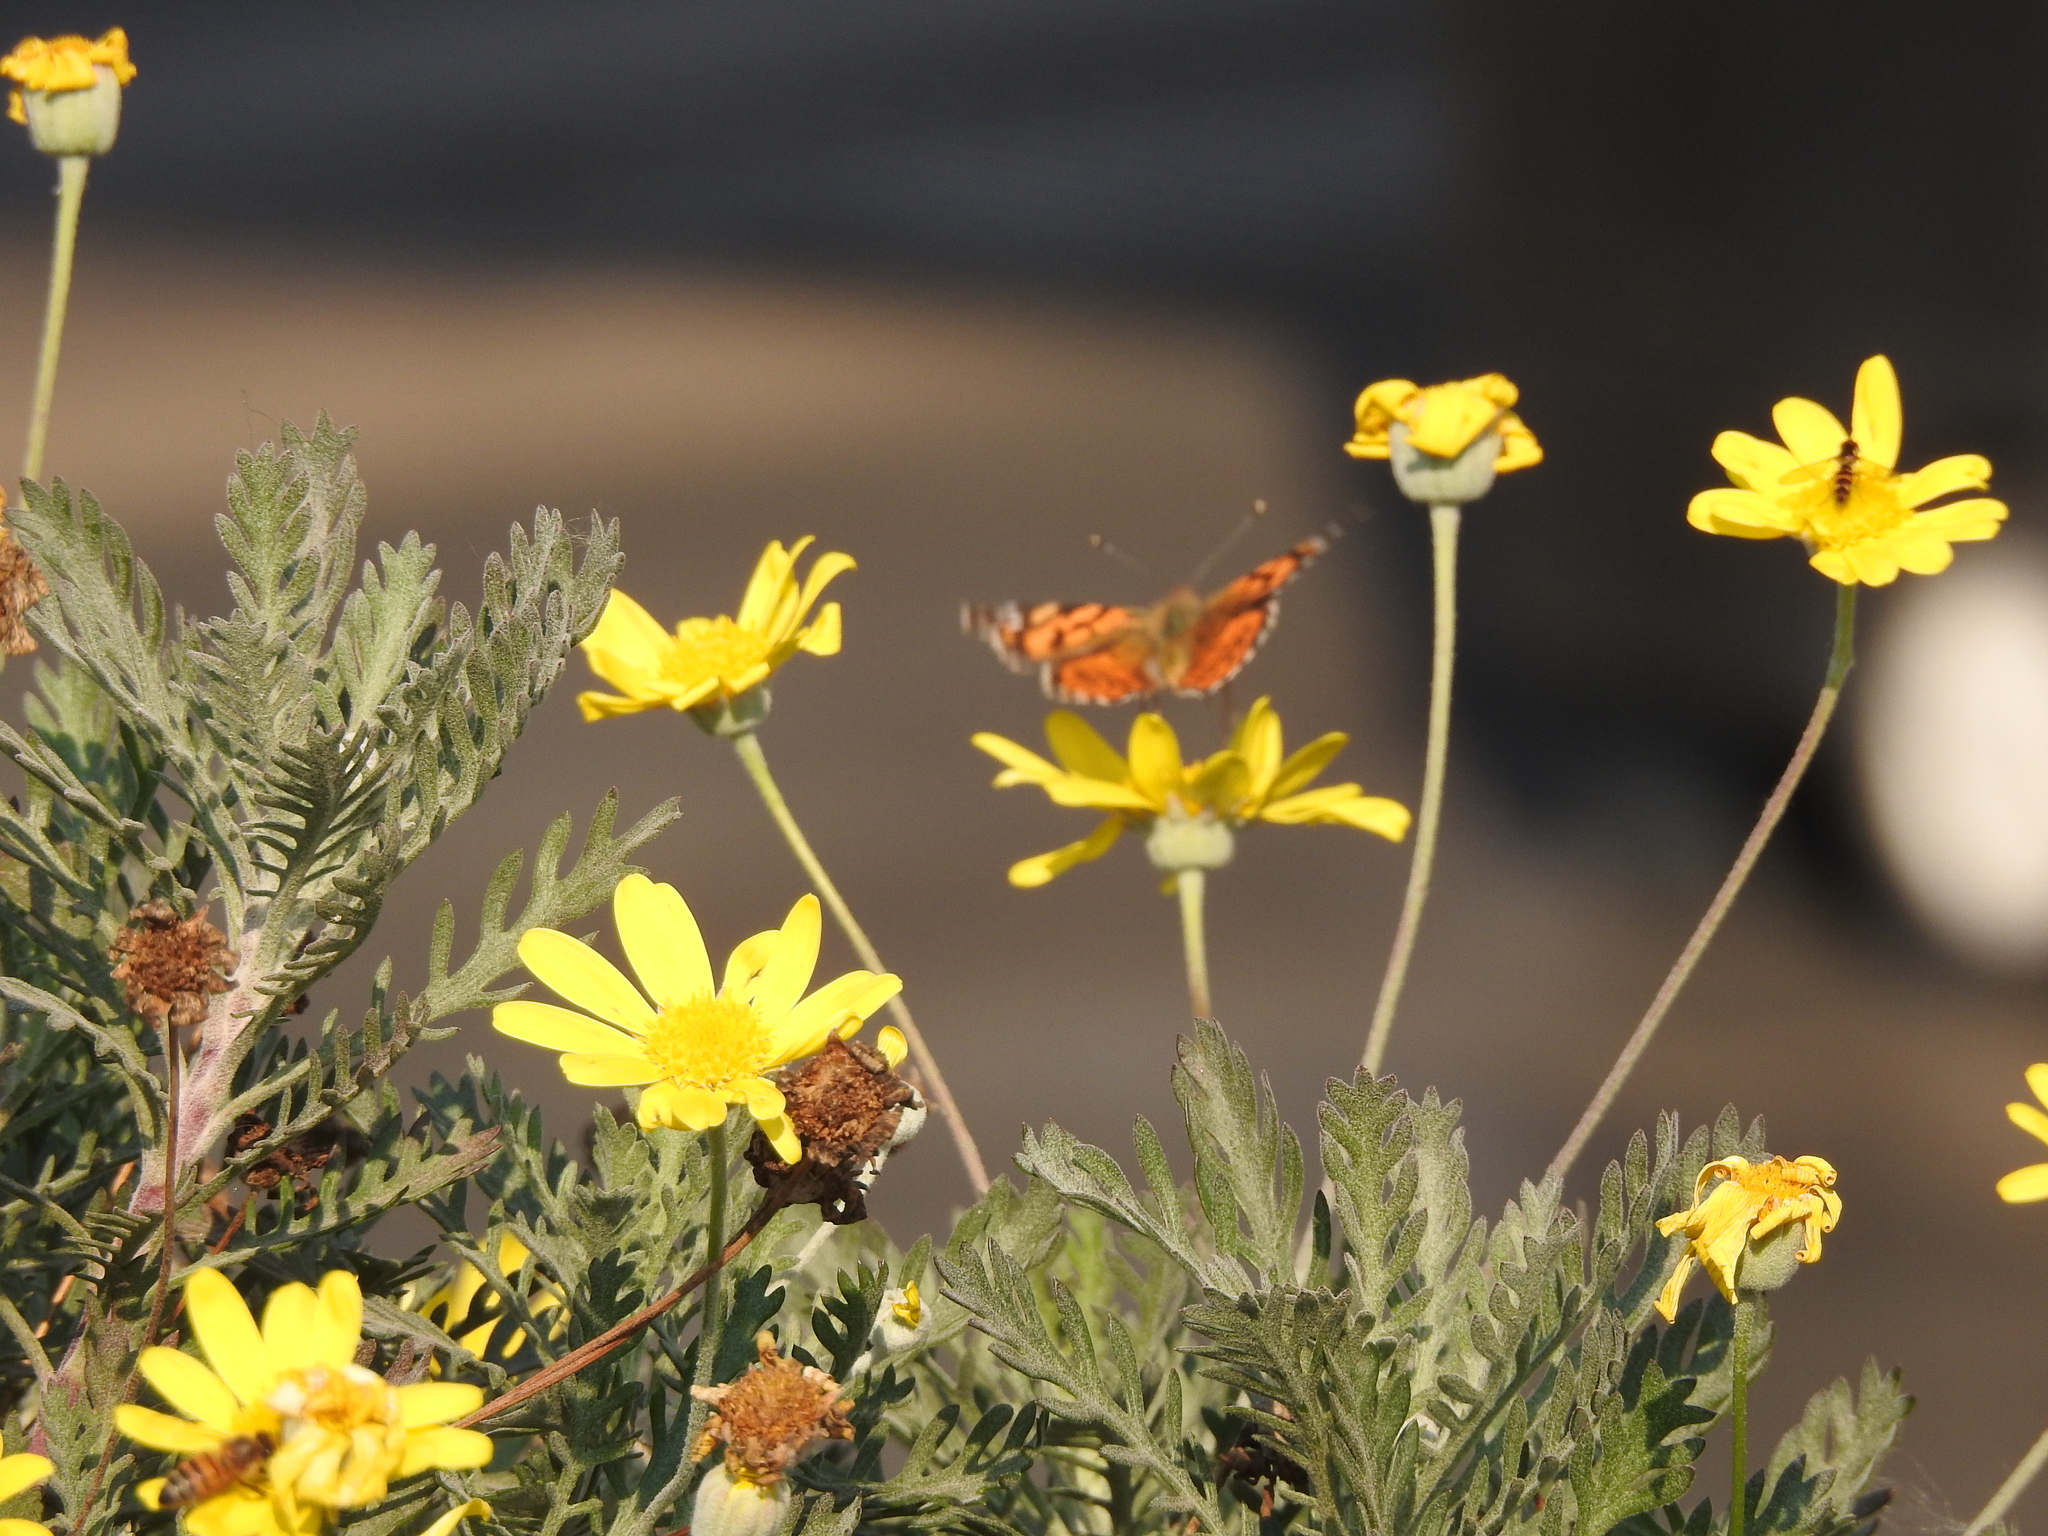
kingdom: Animalia
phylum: Arthropoda
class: Insecta
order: Lepidoptera
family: Nymphalidae
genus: Vanessa
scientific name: Vanessa carye
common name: Subtropical lady
